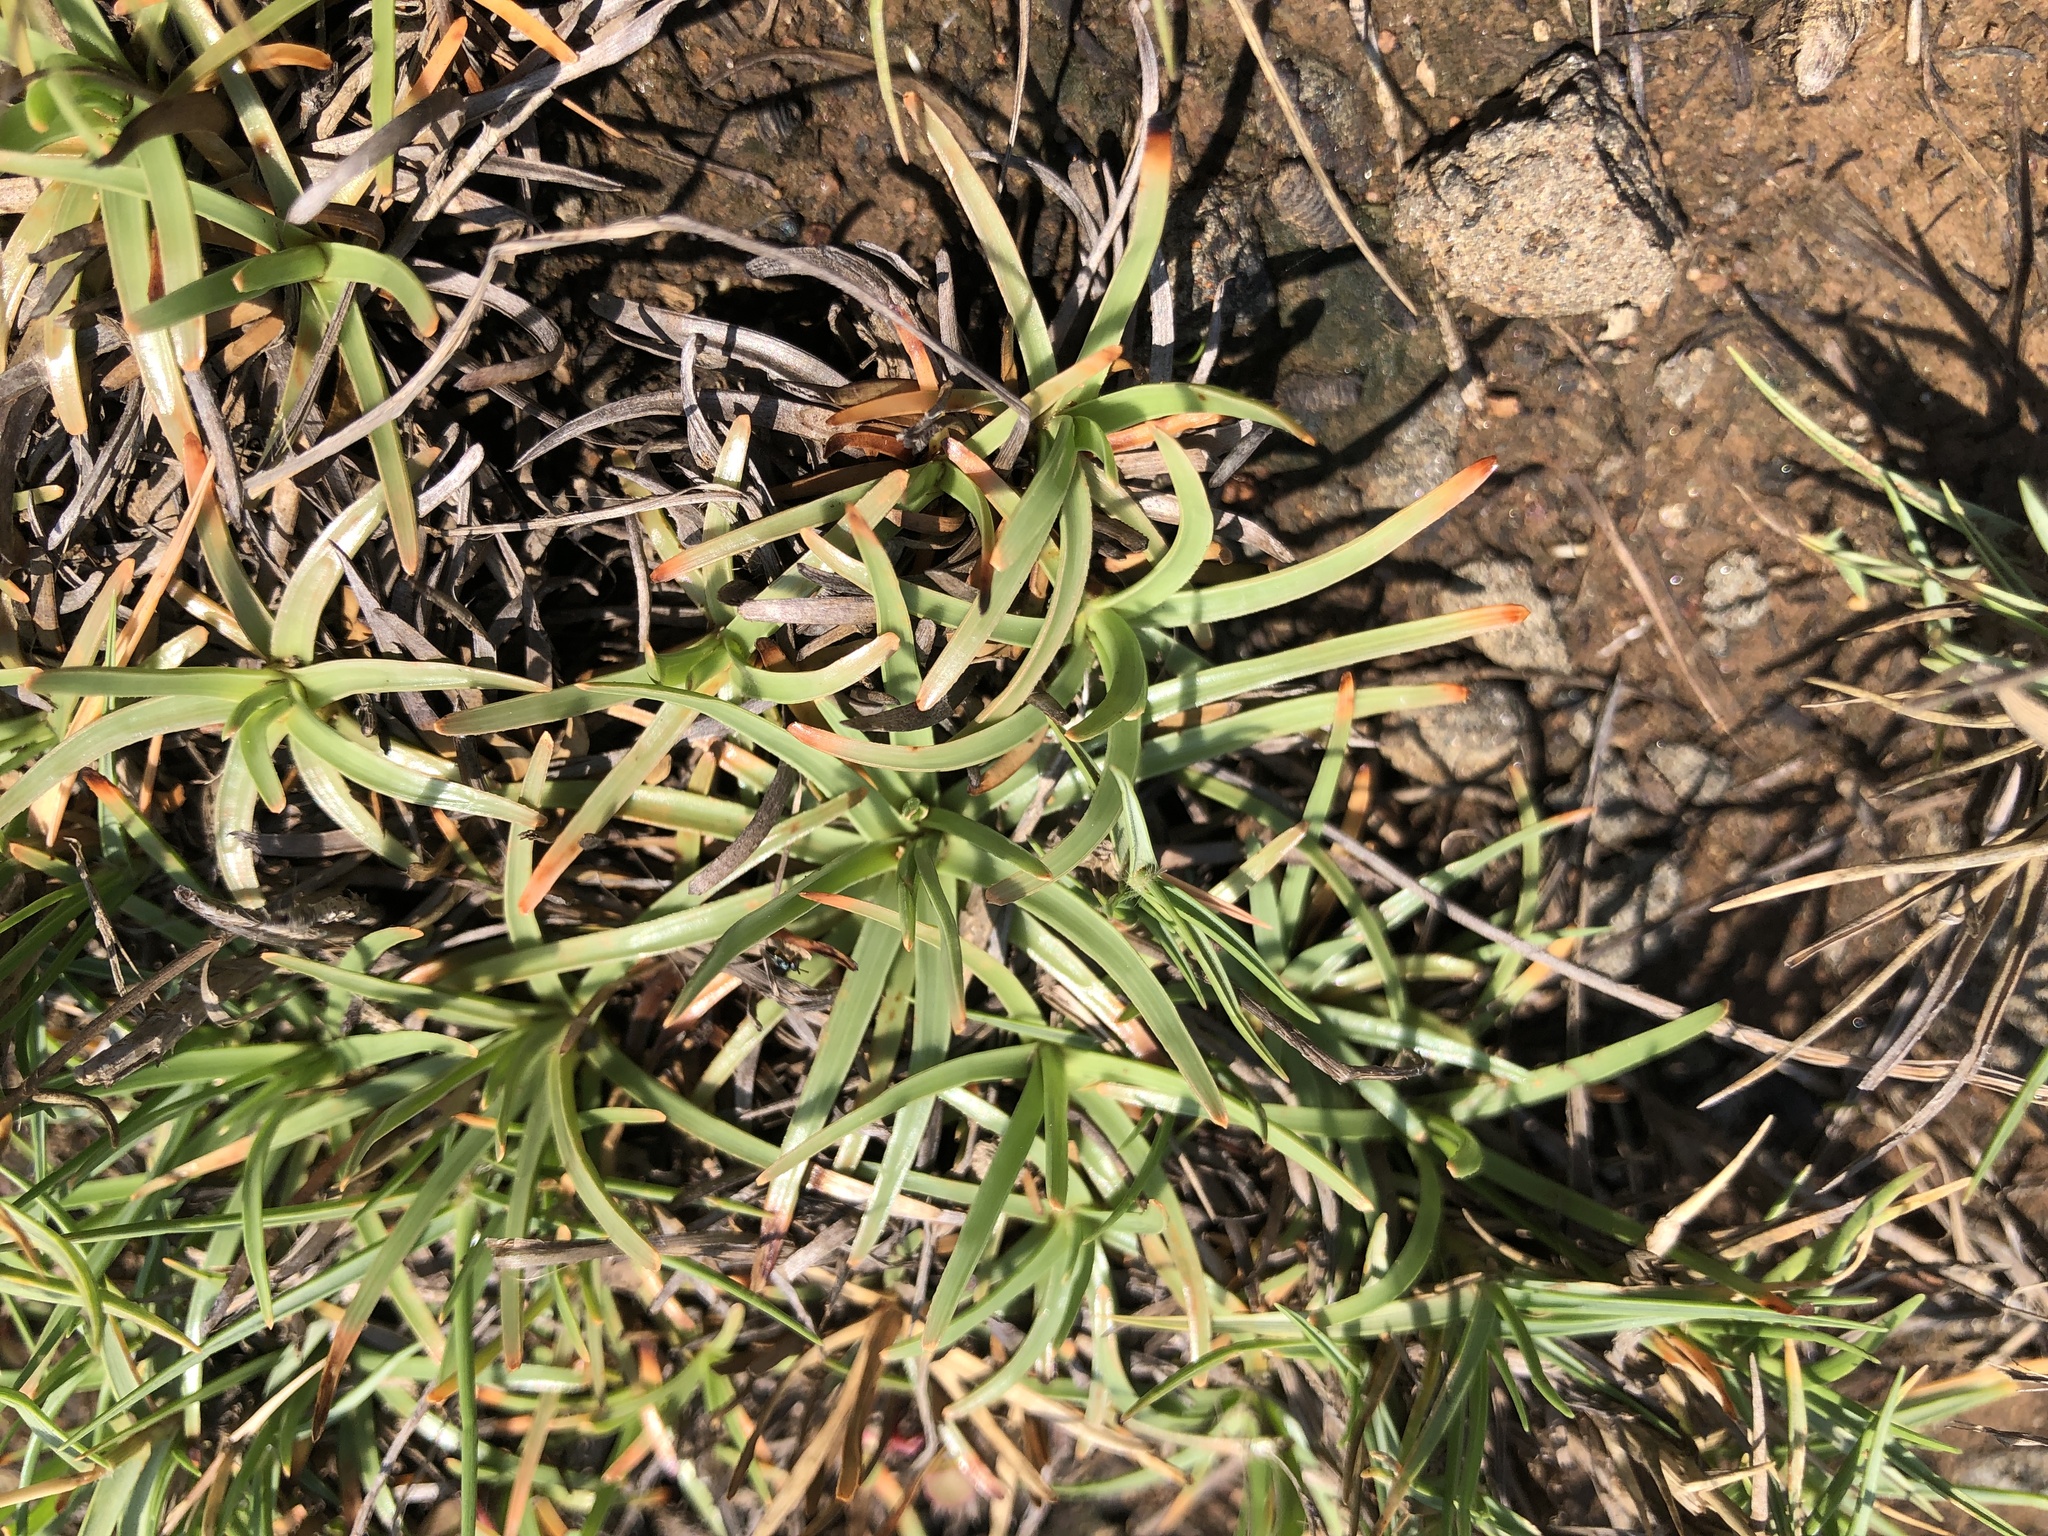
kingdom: Plantae
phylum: Tracheophyta
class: Liliopsida
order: Poales
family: Cyperaceae
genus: Fimbristylis
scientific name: Fimbristylis cymosa
